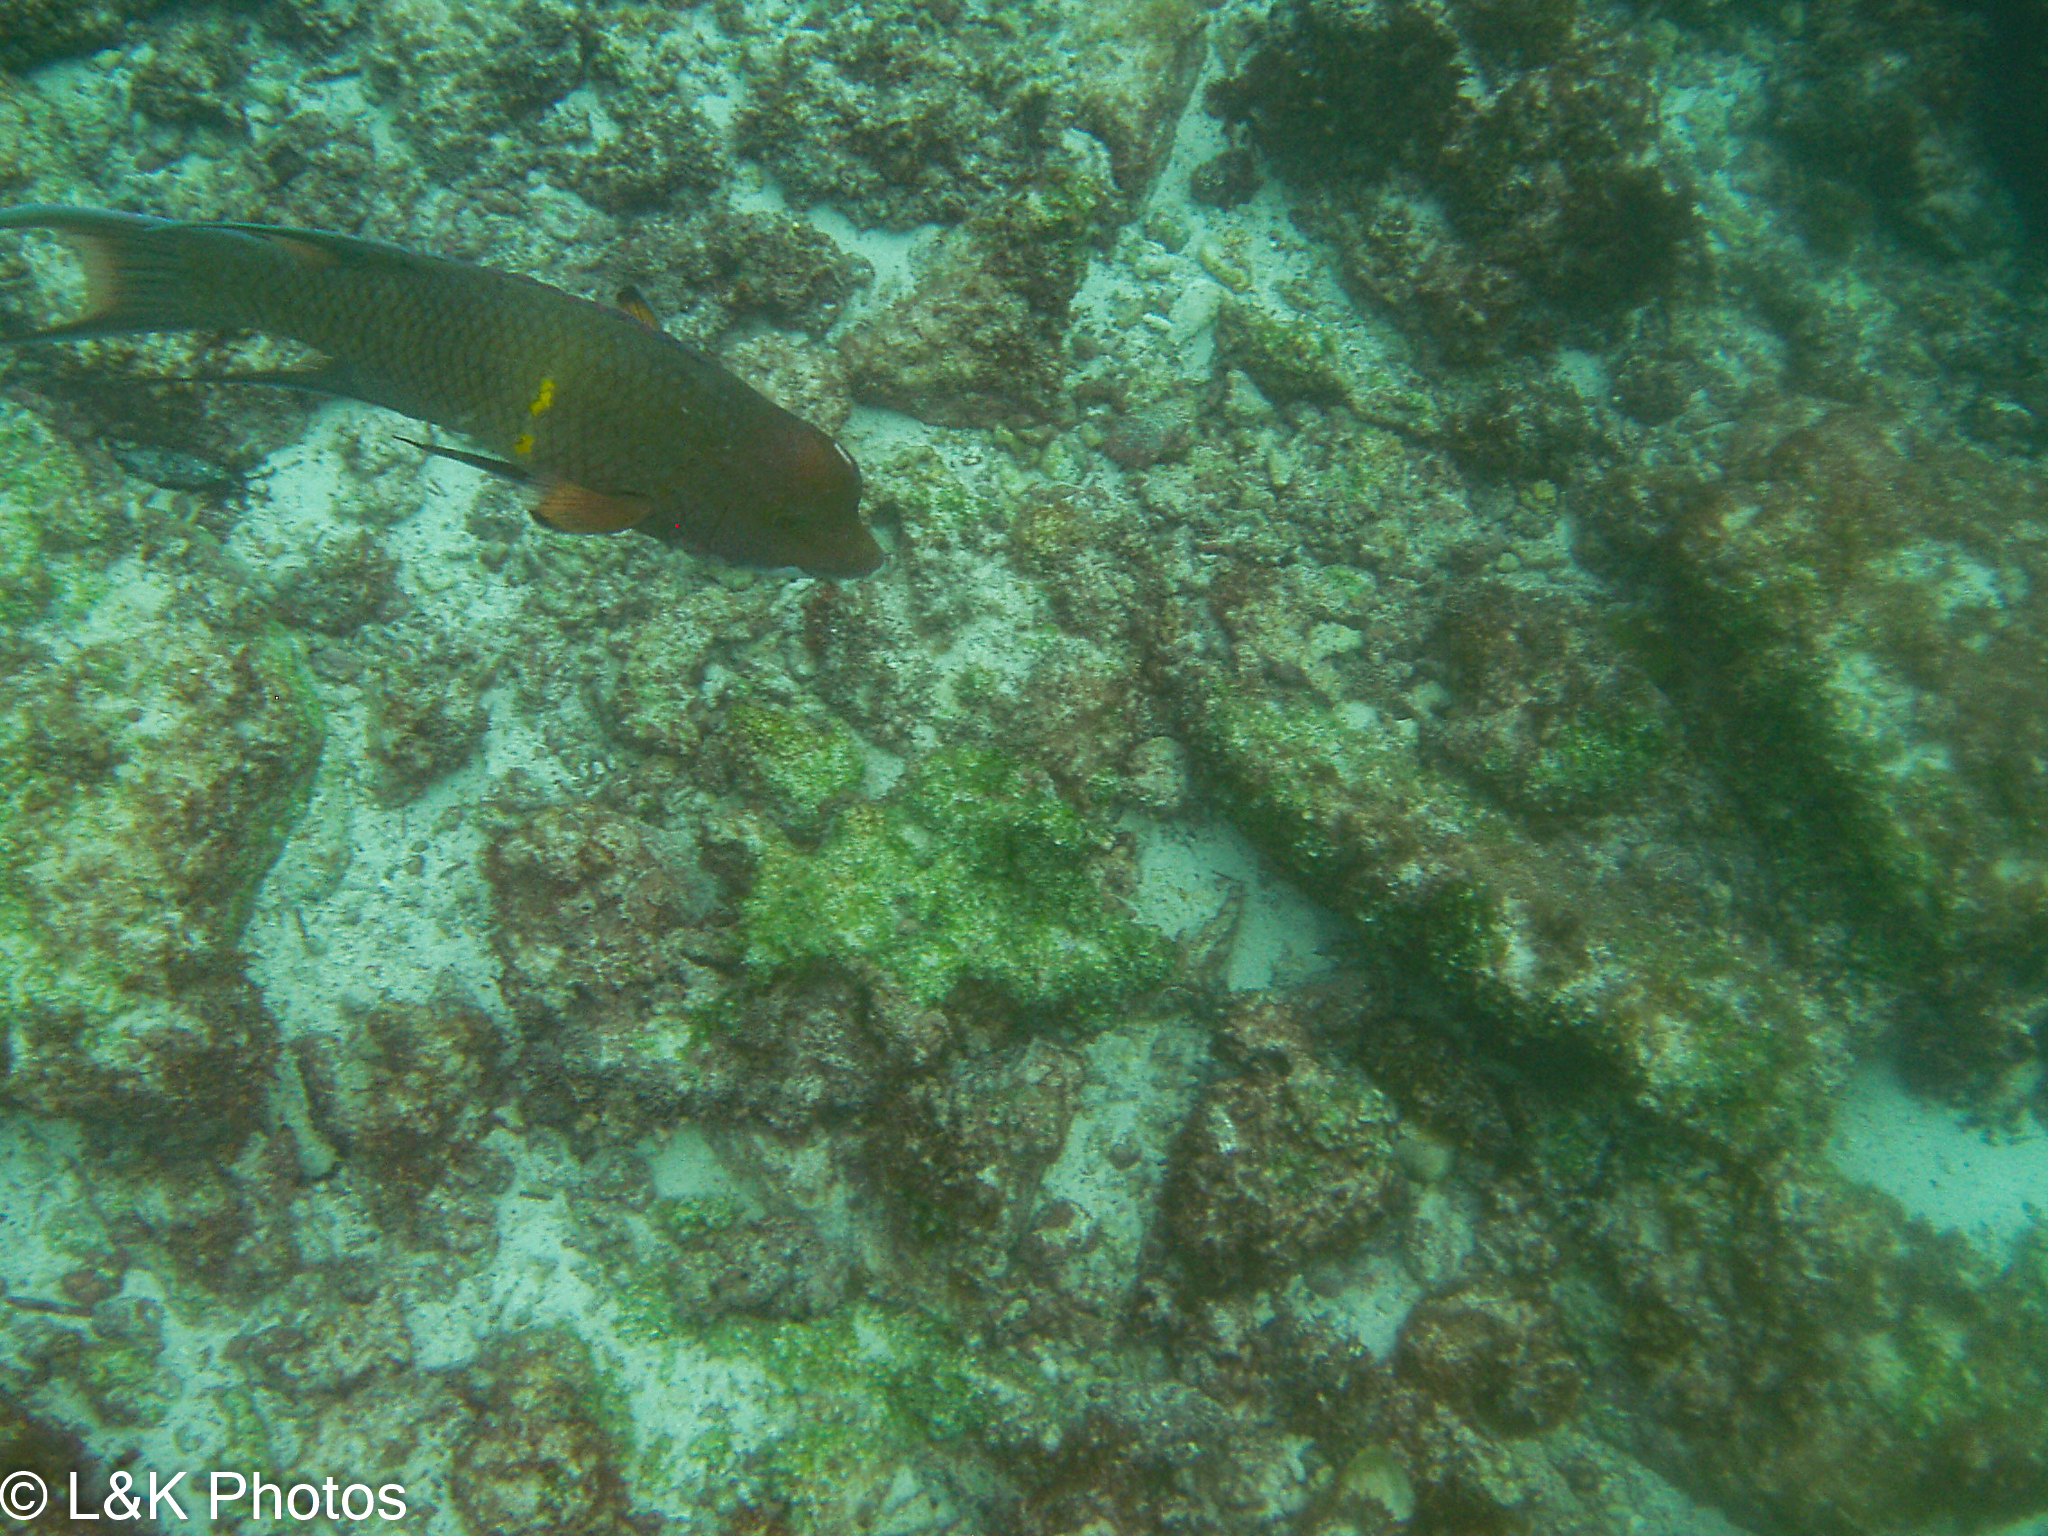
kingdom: Animalia
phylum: Chordata
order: Perciformes
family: Labridae
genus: Bodianus
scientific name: Bodianus diplotaenia
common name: Mexican hogfish
